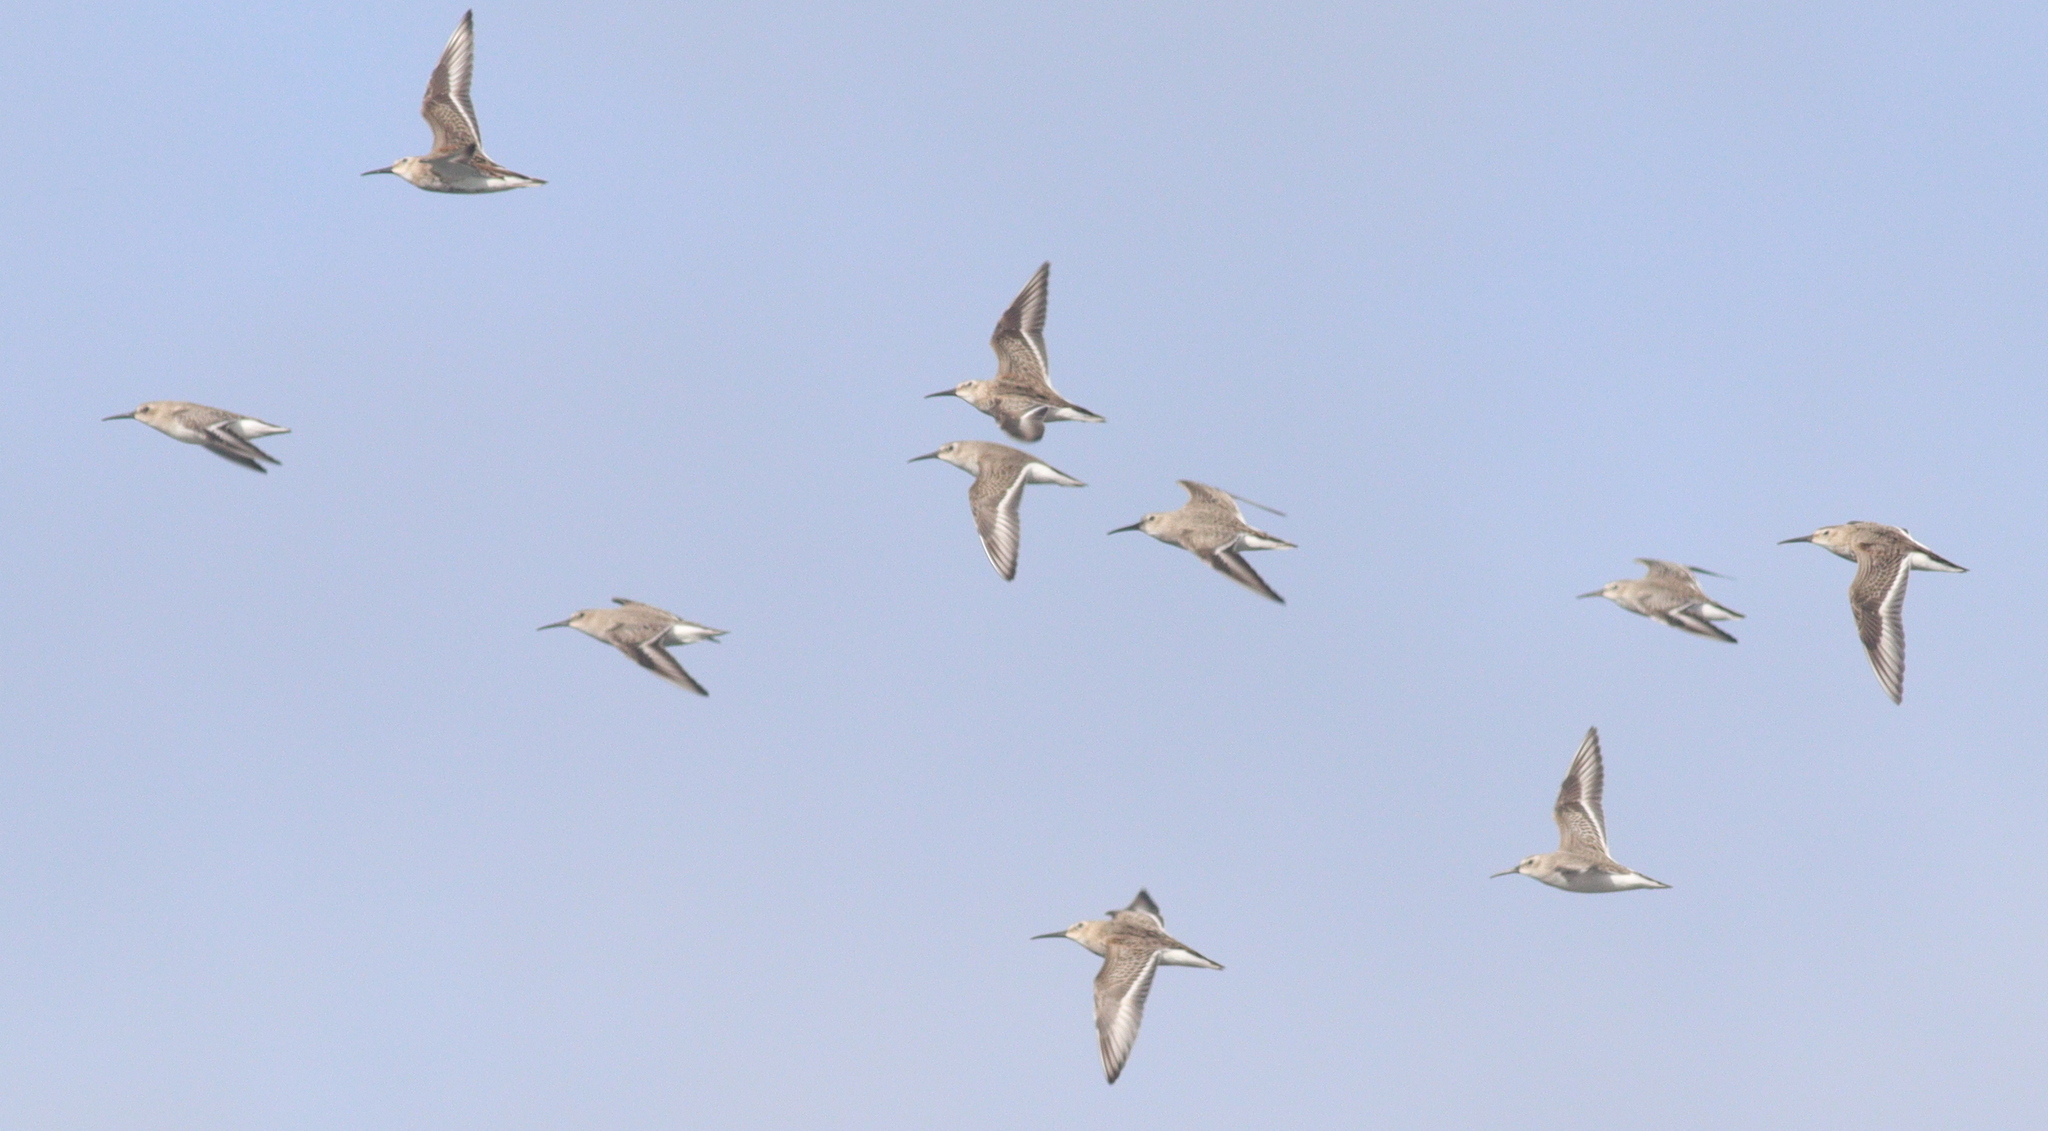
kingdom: Animalia
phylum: Chordata
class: Aves
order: Charadriiformes
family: Scolopacidae
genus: Calidris
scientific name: Calidris alpina
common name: Dunlin
